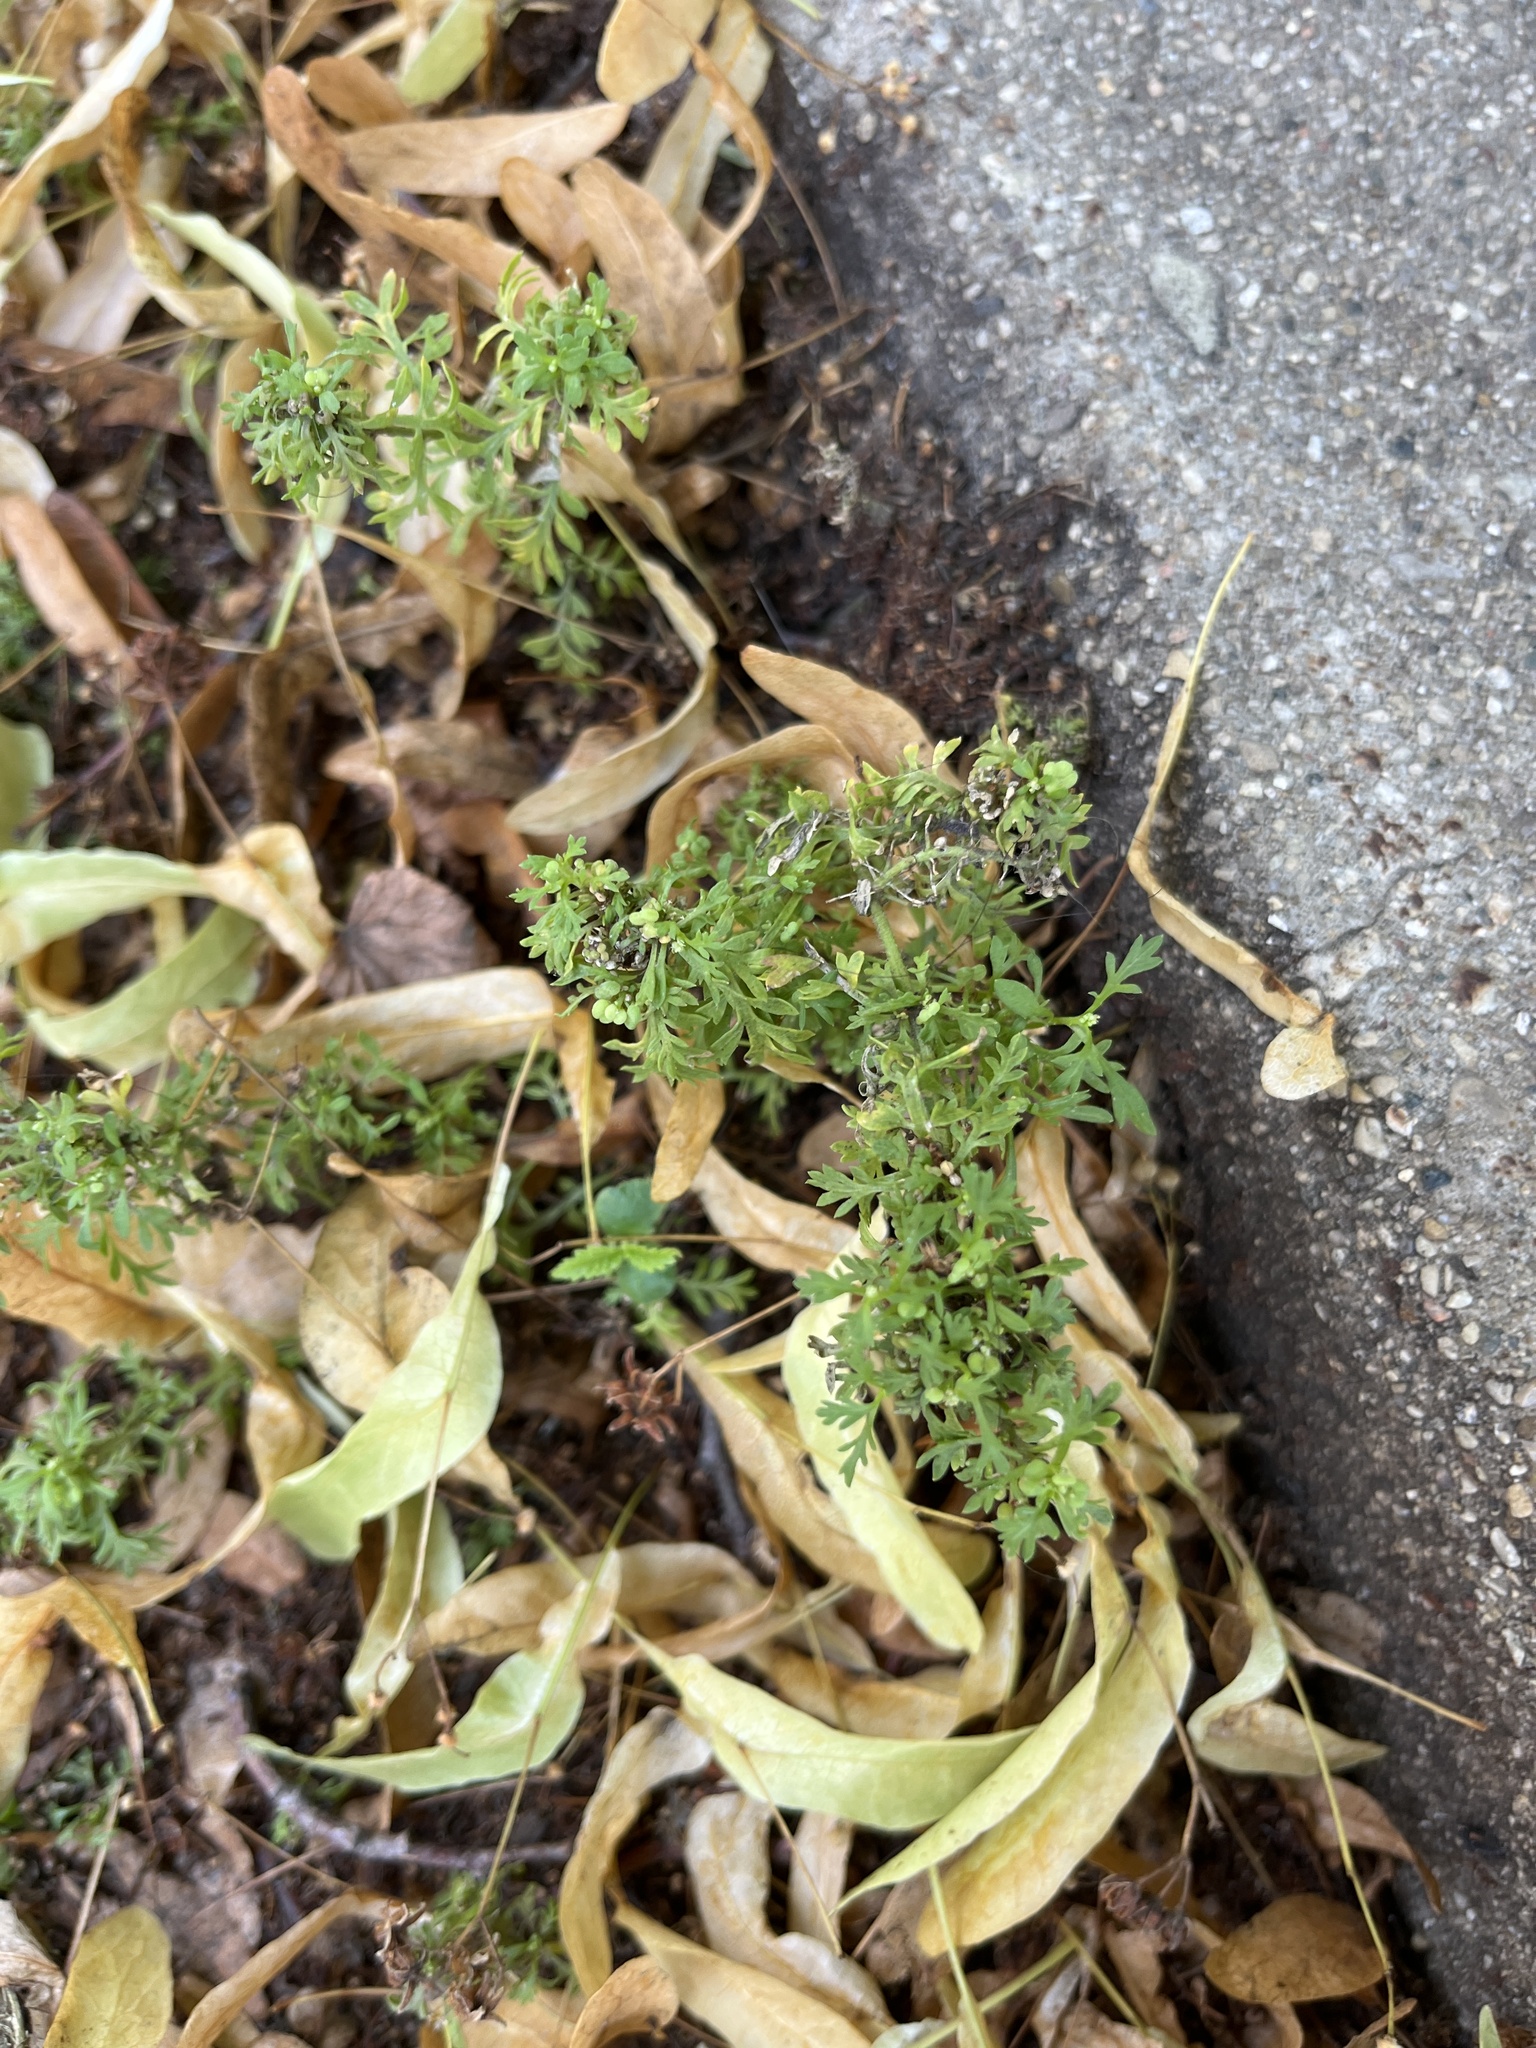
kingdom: Plantae
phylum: Tracheophyta
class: Magnoliopsida
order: Brassicales
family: Brassicaceae
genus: Lepidium
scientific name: Lepidium didymum
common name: Lesser swinecress
